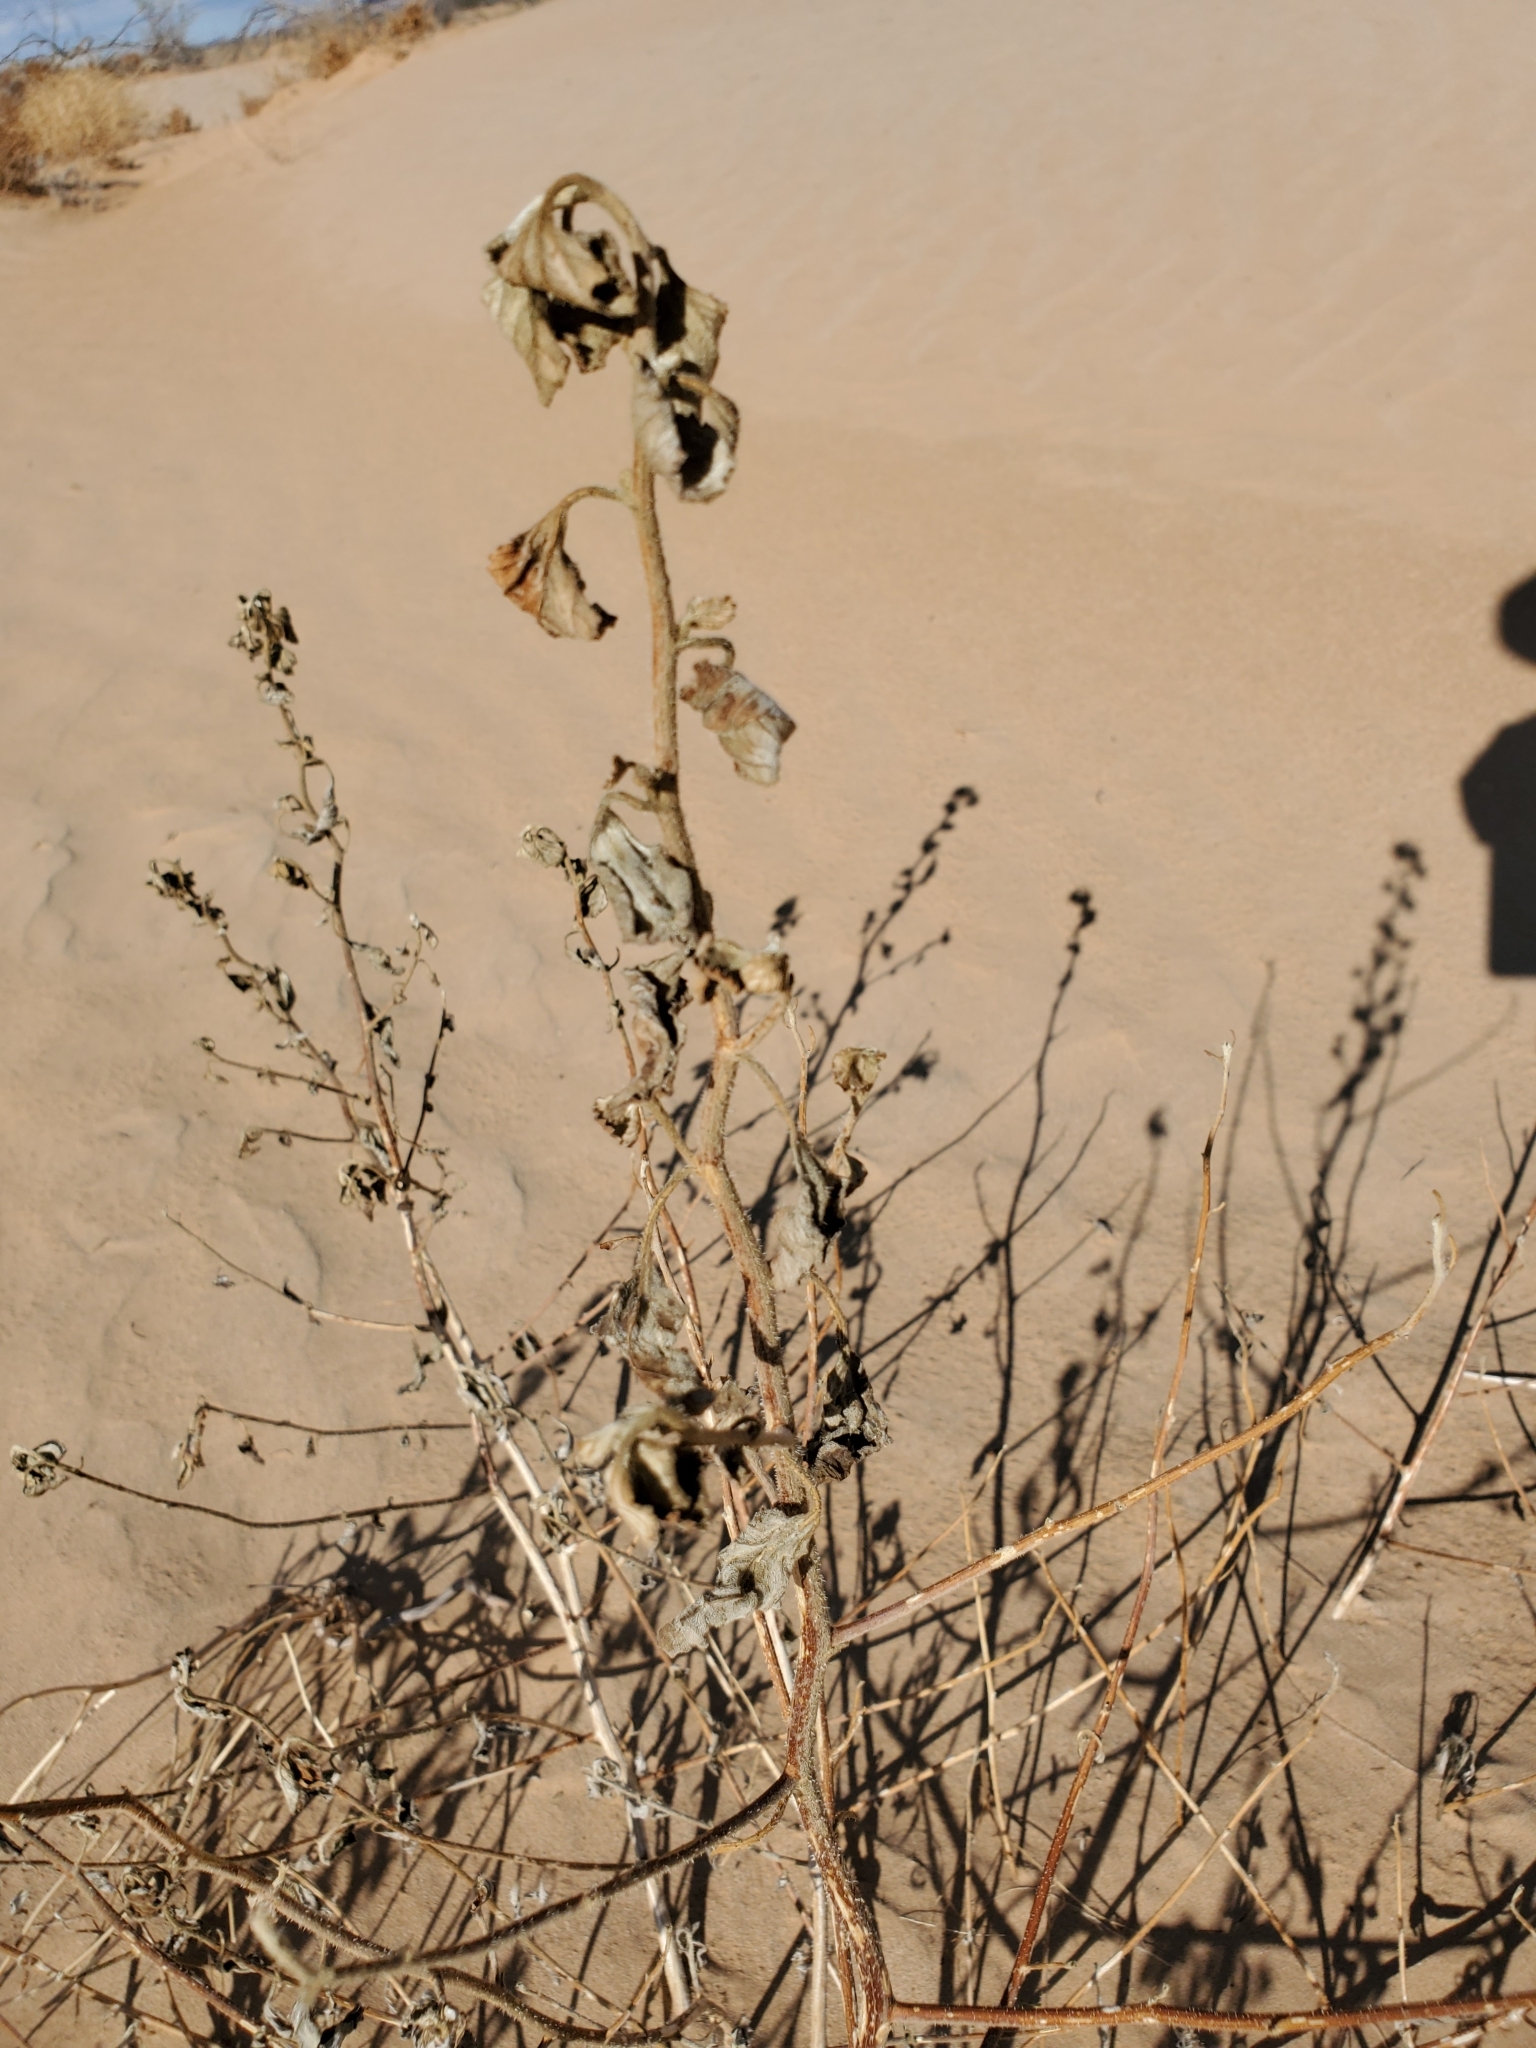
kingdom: Plantae
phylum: Tracheophyta
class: Magnoliopsida
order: Asterales
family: Asteraceae
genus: Dicoria
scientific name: Dicoria canescens
